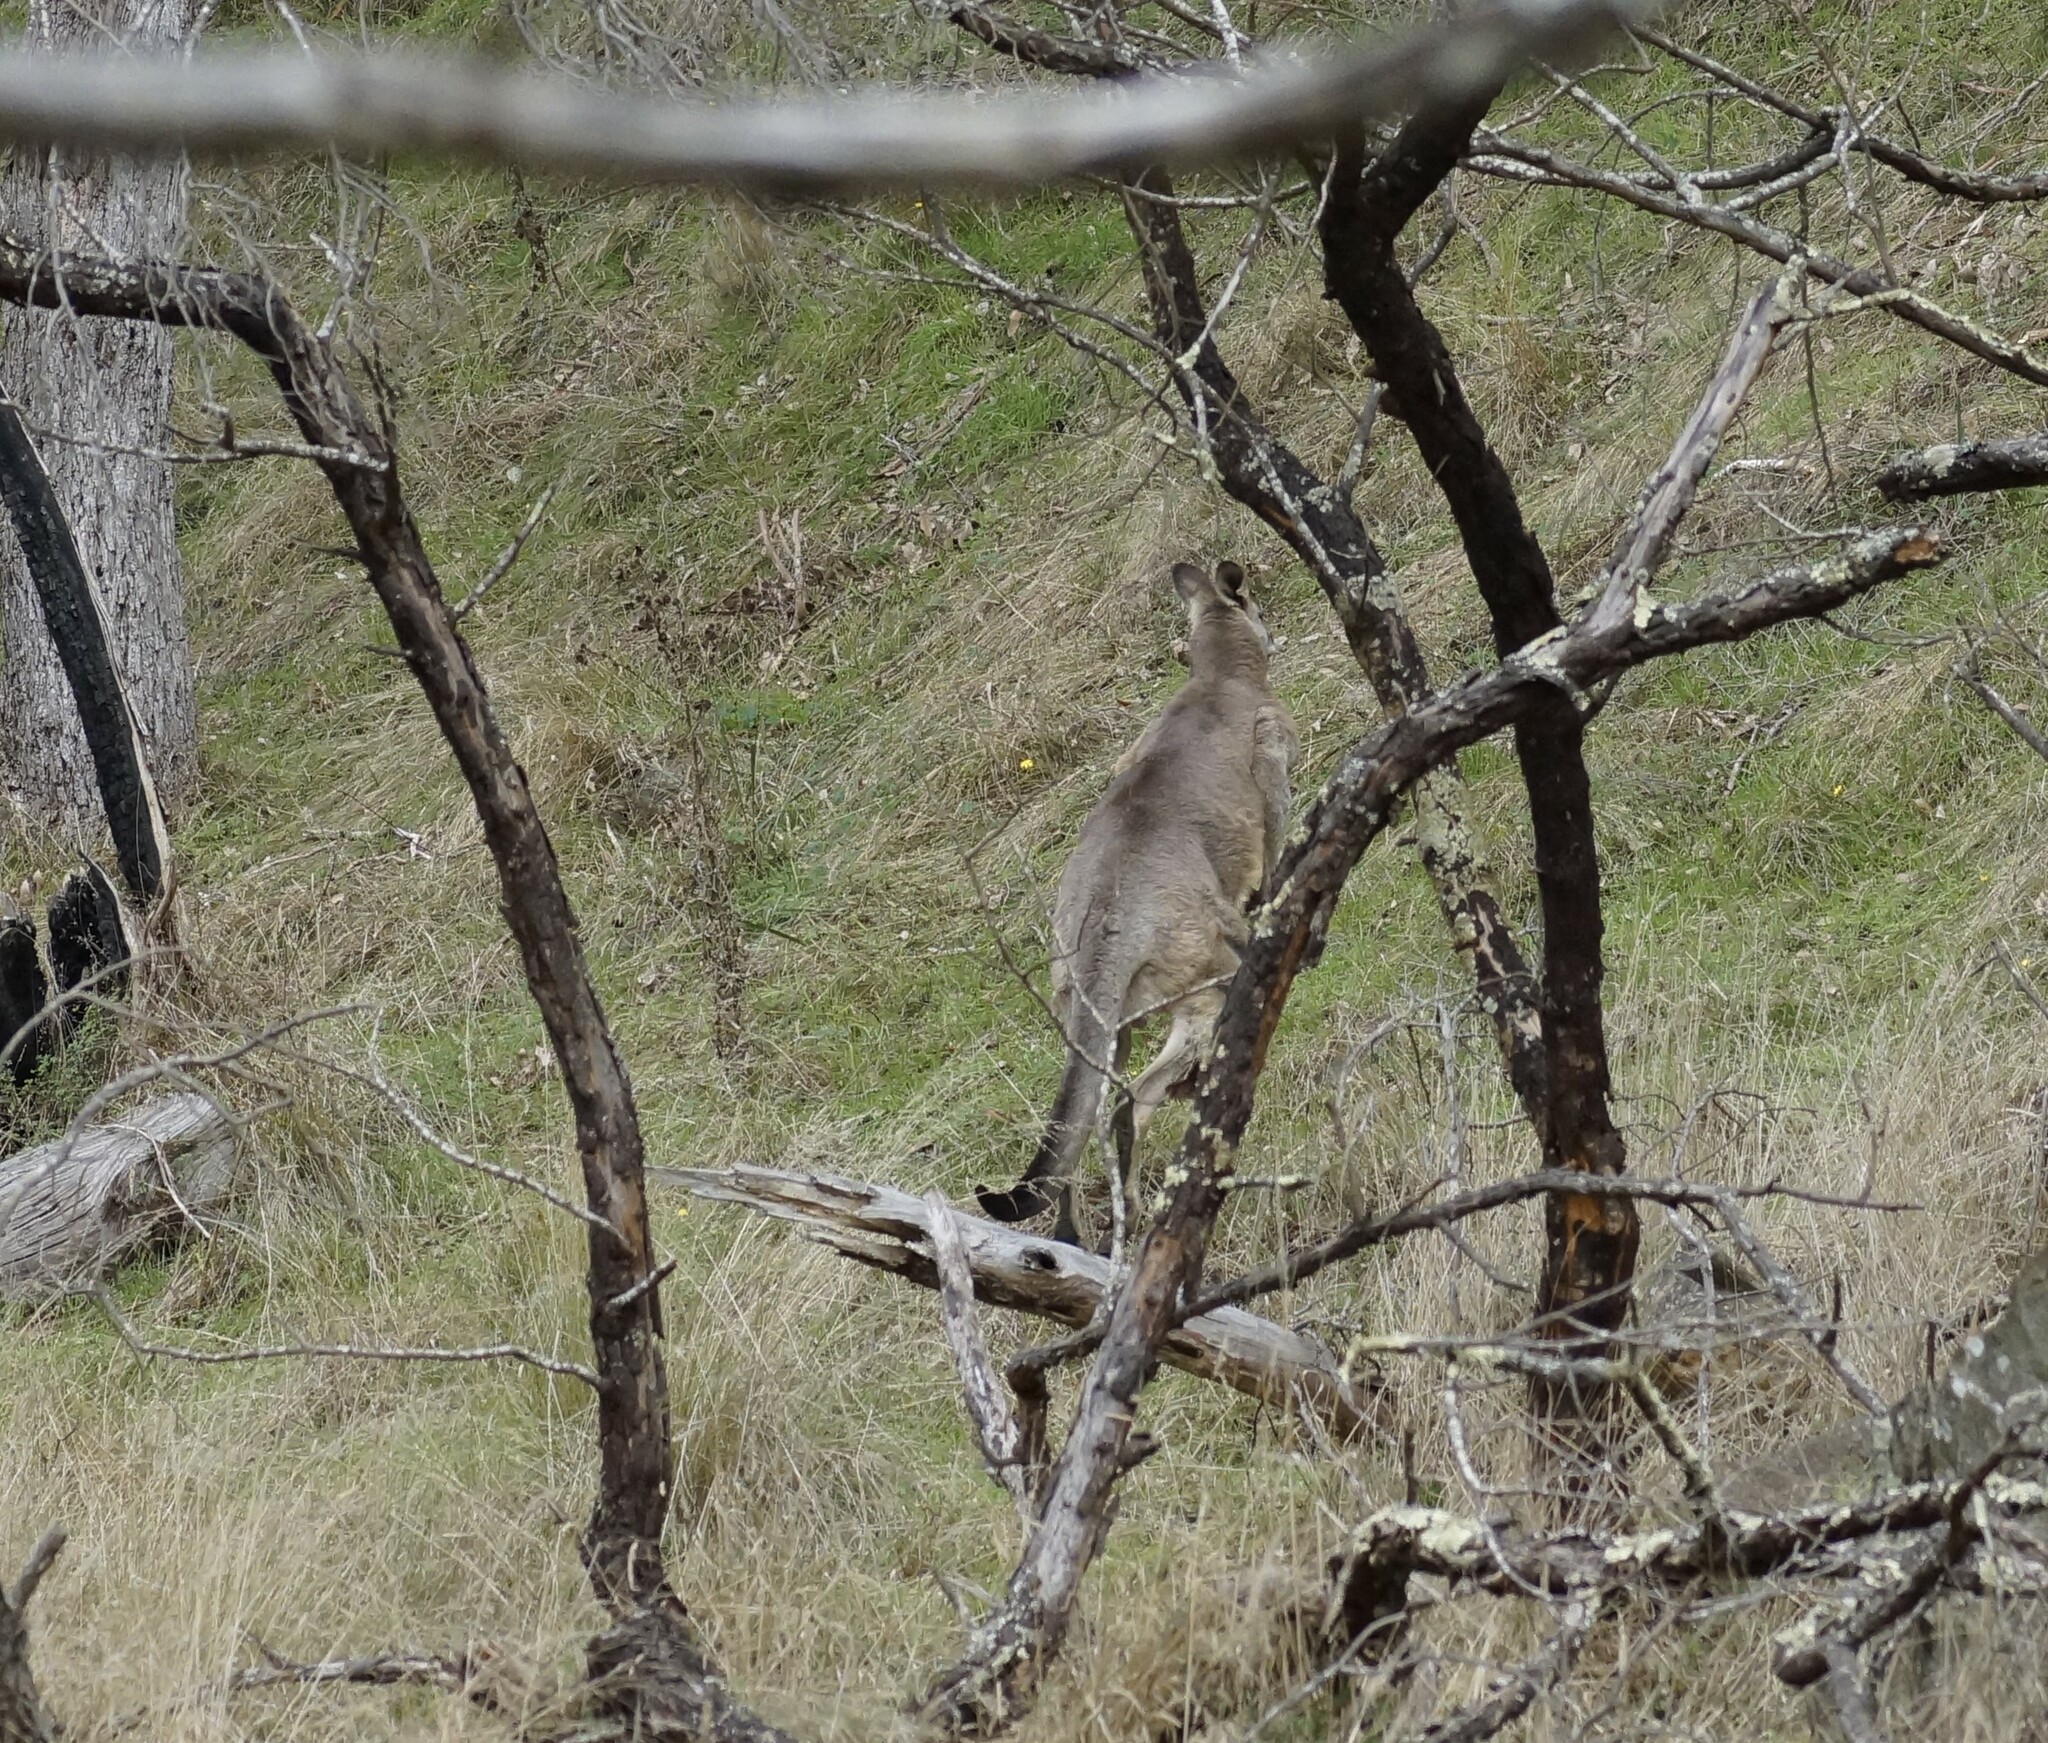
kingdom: Animalia
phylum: Chordata
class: Mammalia
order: Diprotodontia
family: Macropodidae
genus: Macropus
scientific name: Macropus giganteus
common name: Eastern grey kangaroo
